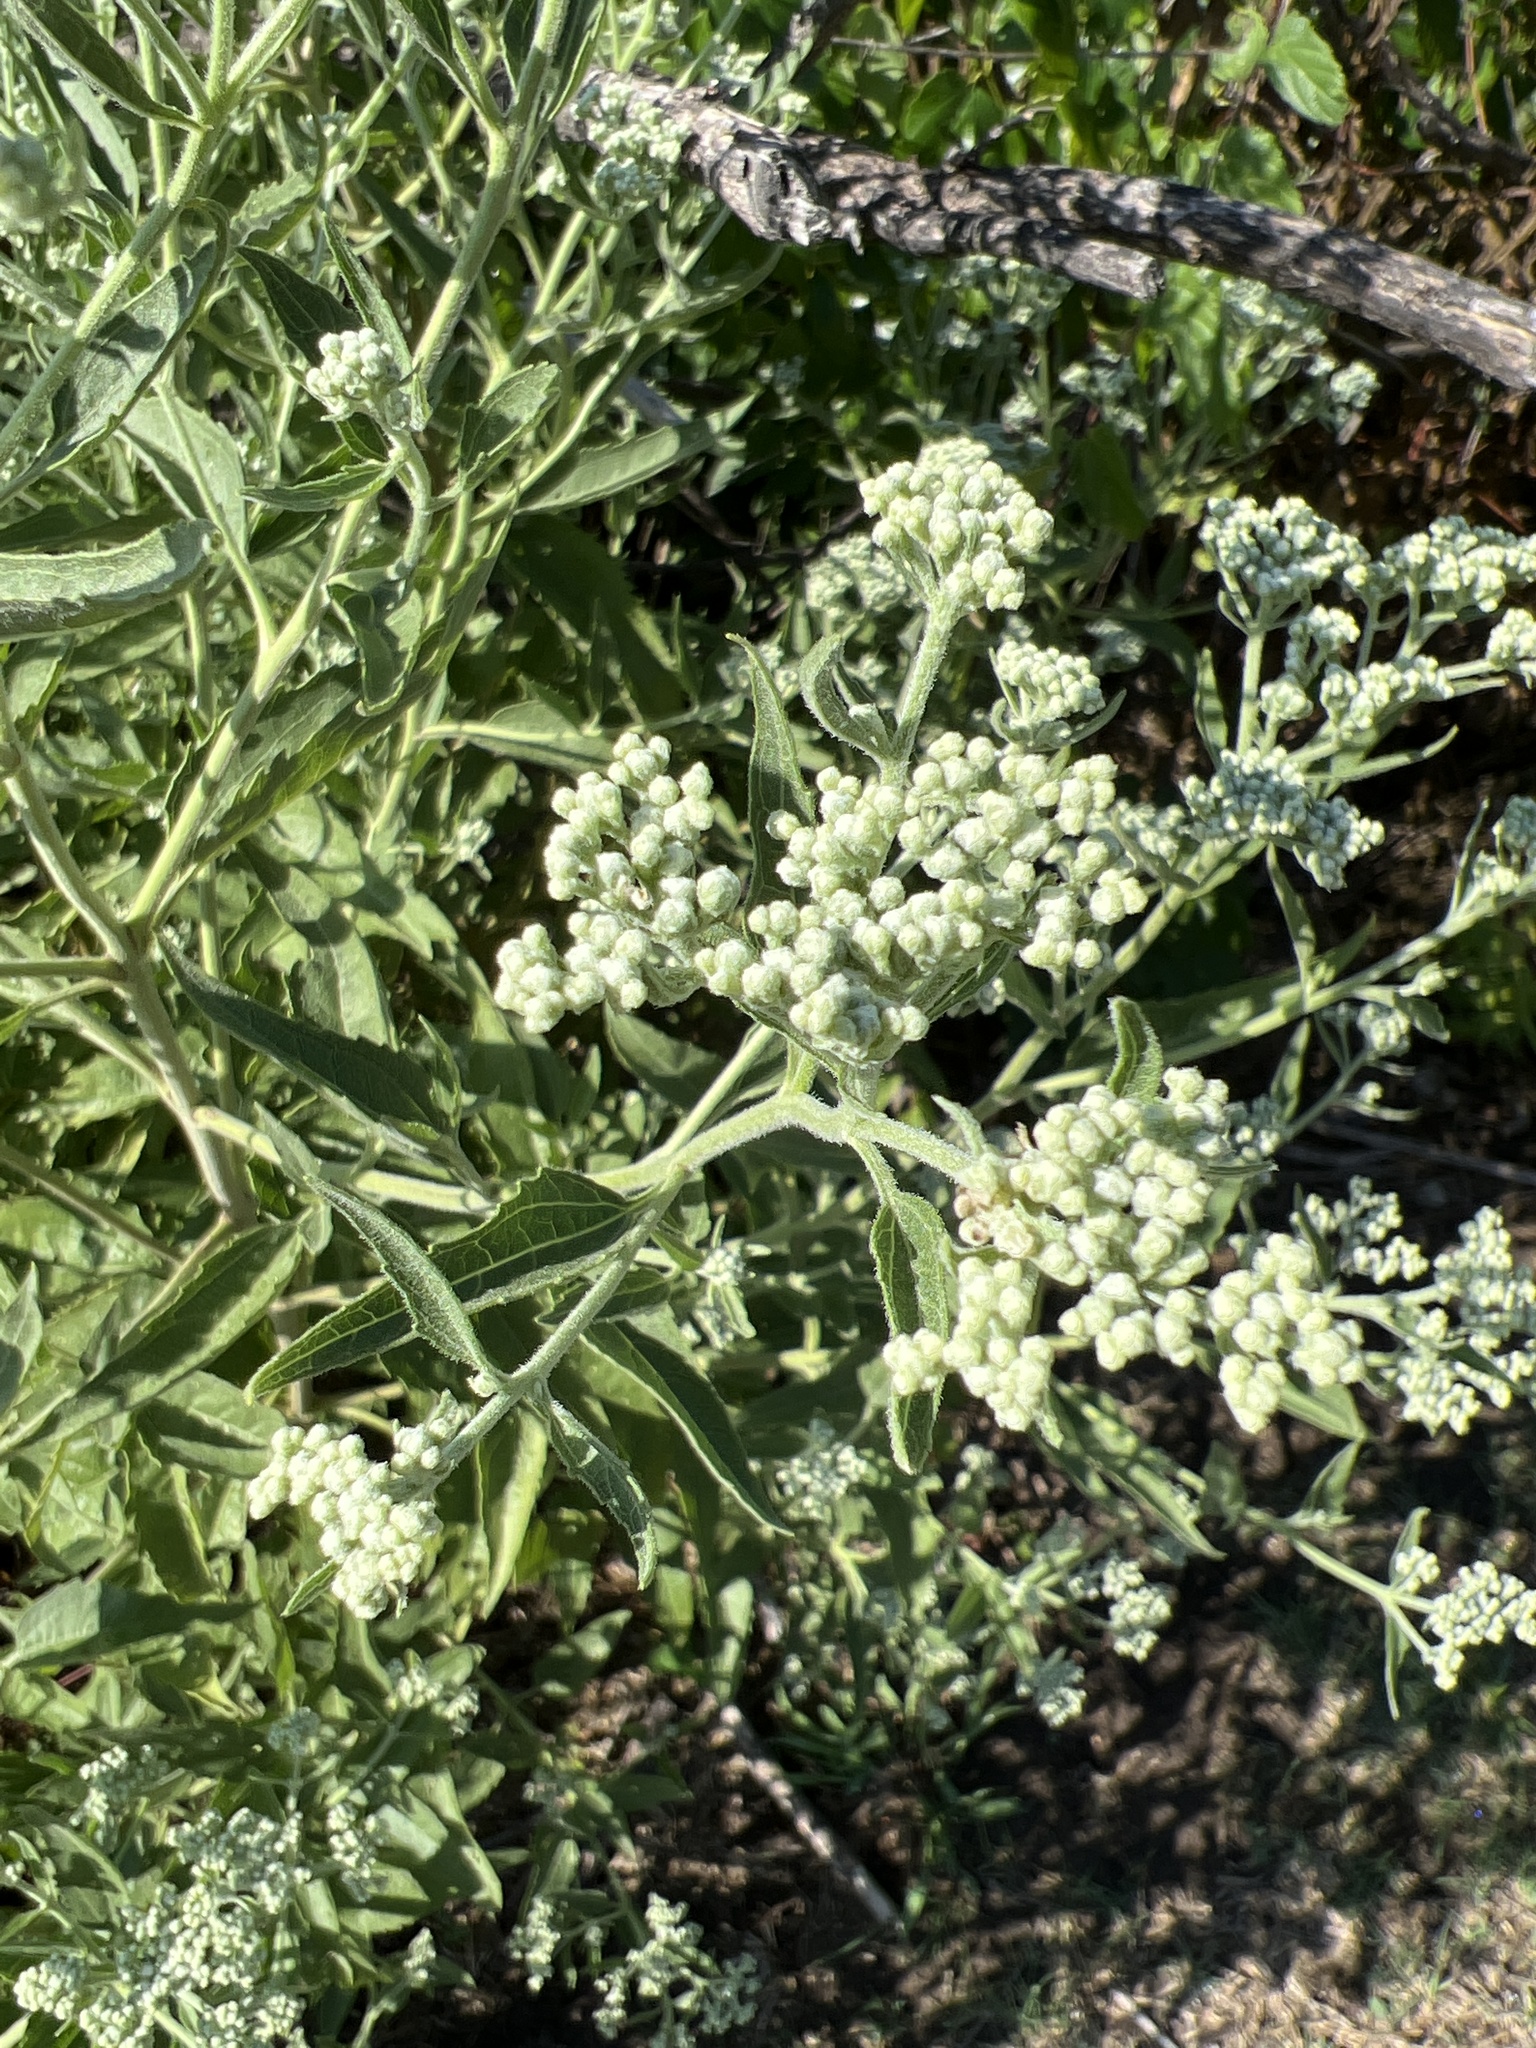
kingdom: Plantae
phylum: Tracheophyta
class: Magnoliopsida
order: Asterales
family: Asteraceae
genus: Eupatorium
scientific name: Eupatorium serotinum
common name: Late boneset
